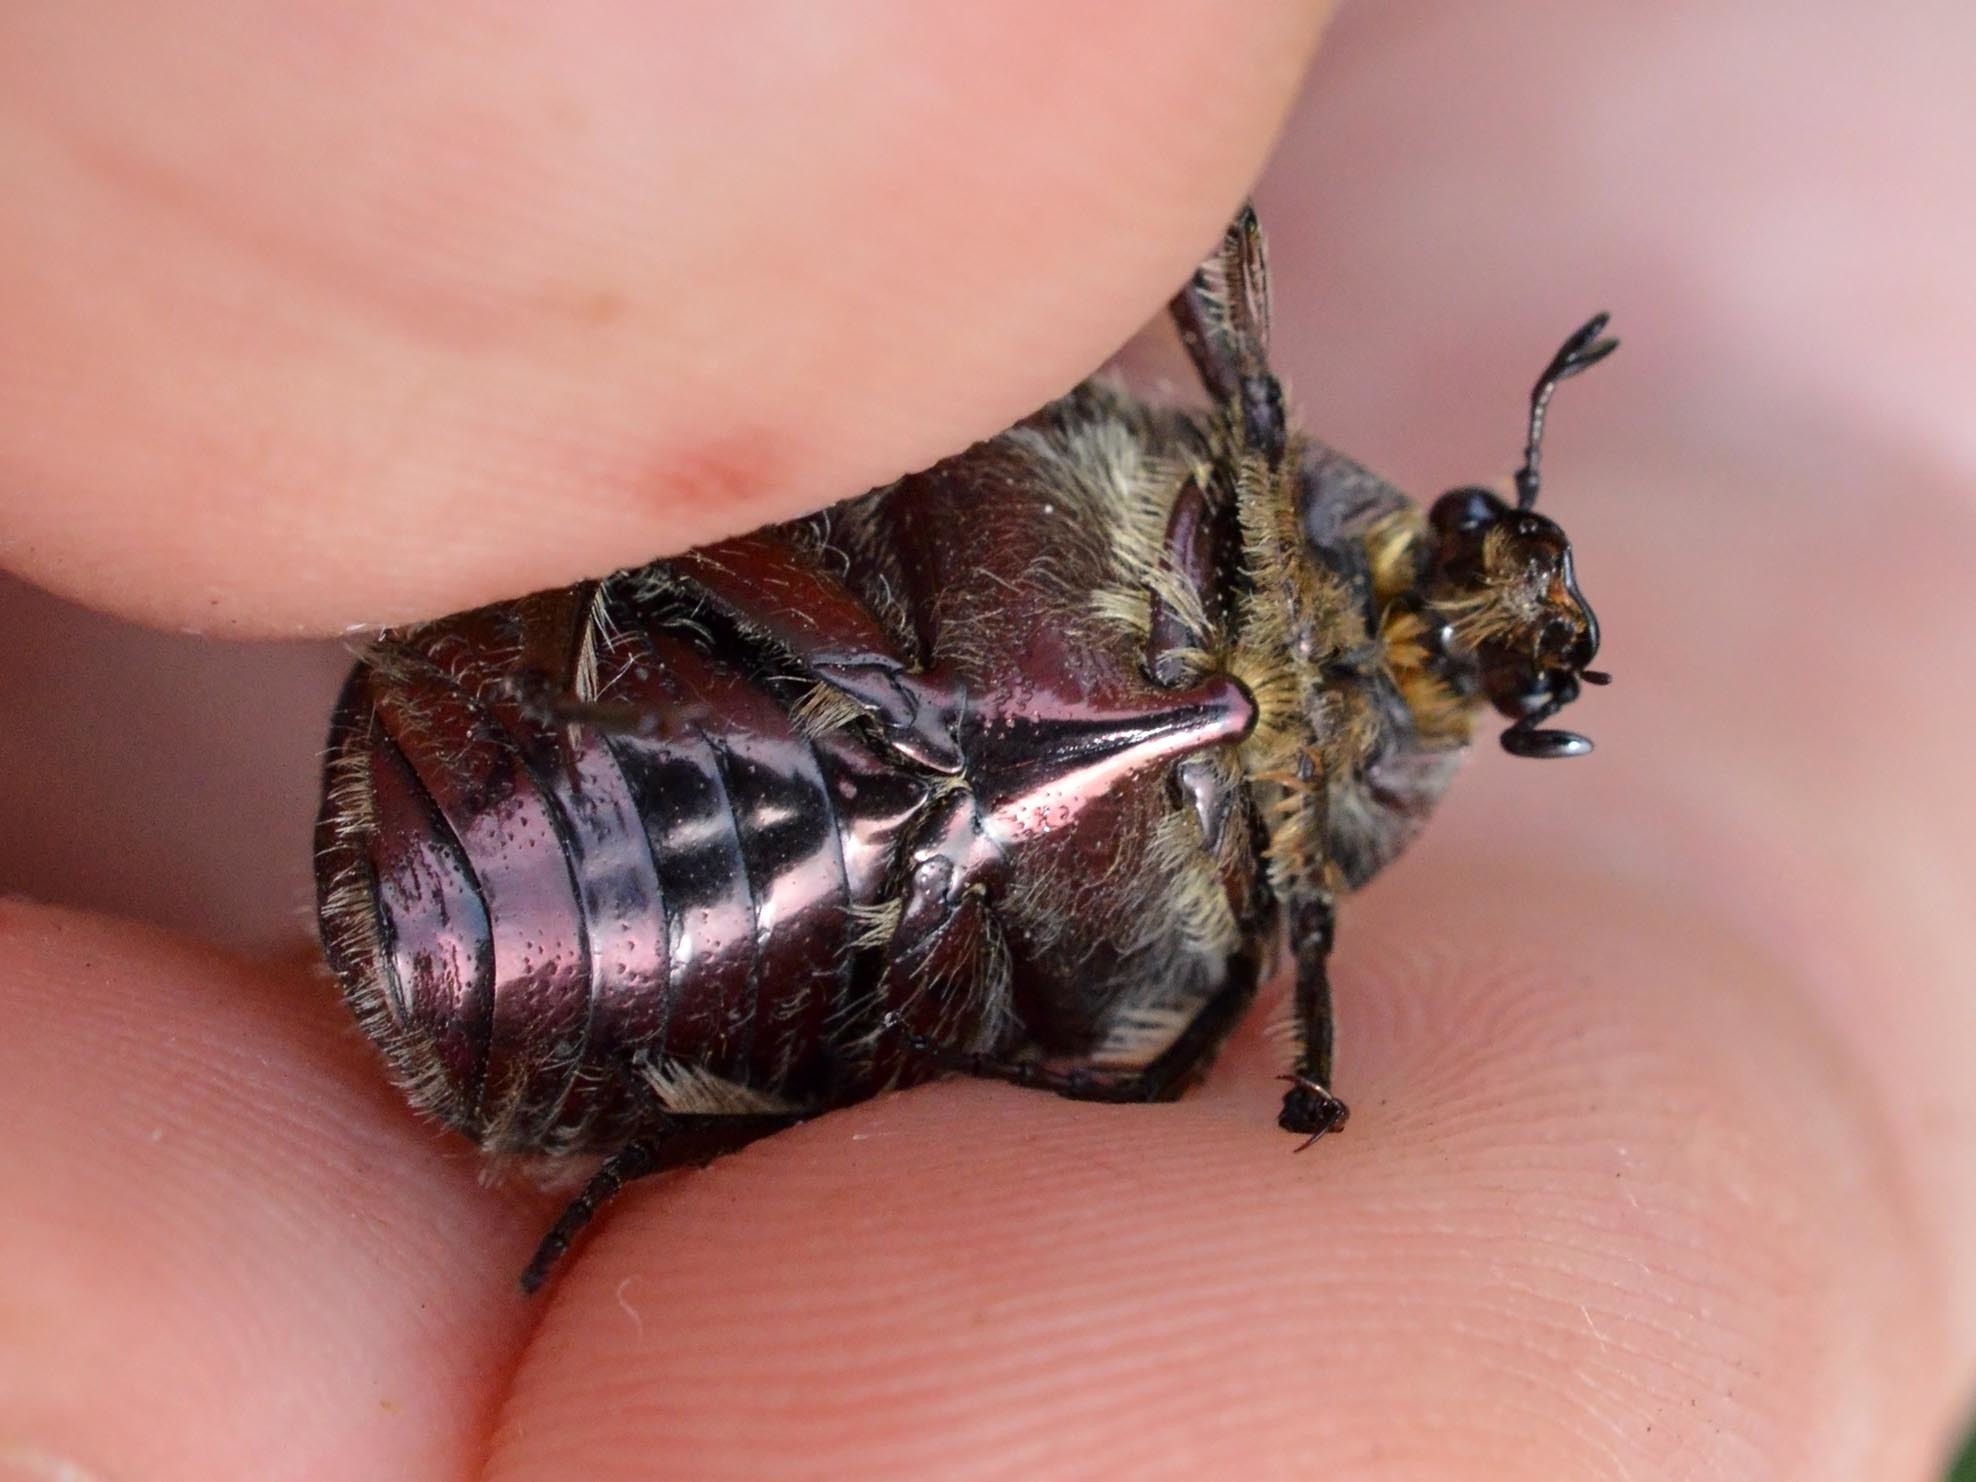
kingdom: Animalia
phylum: Arthropoda
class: Insecta
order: Coleoptera
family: Scarabaeidae
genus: Cetonia
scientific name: Cetonia aurata
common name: Rose chafer
